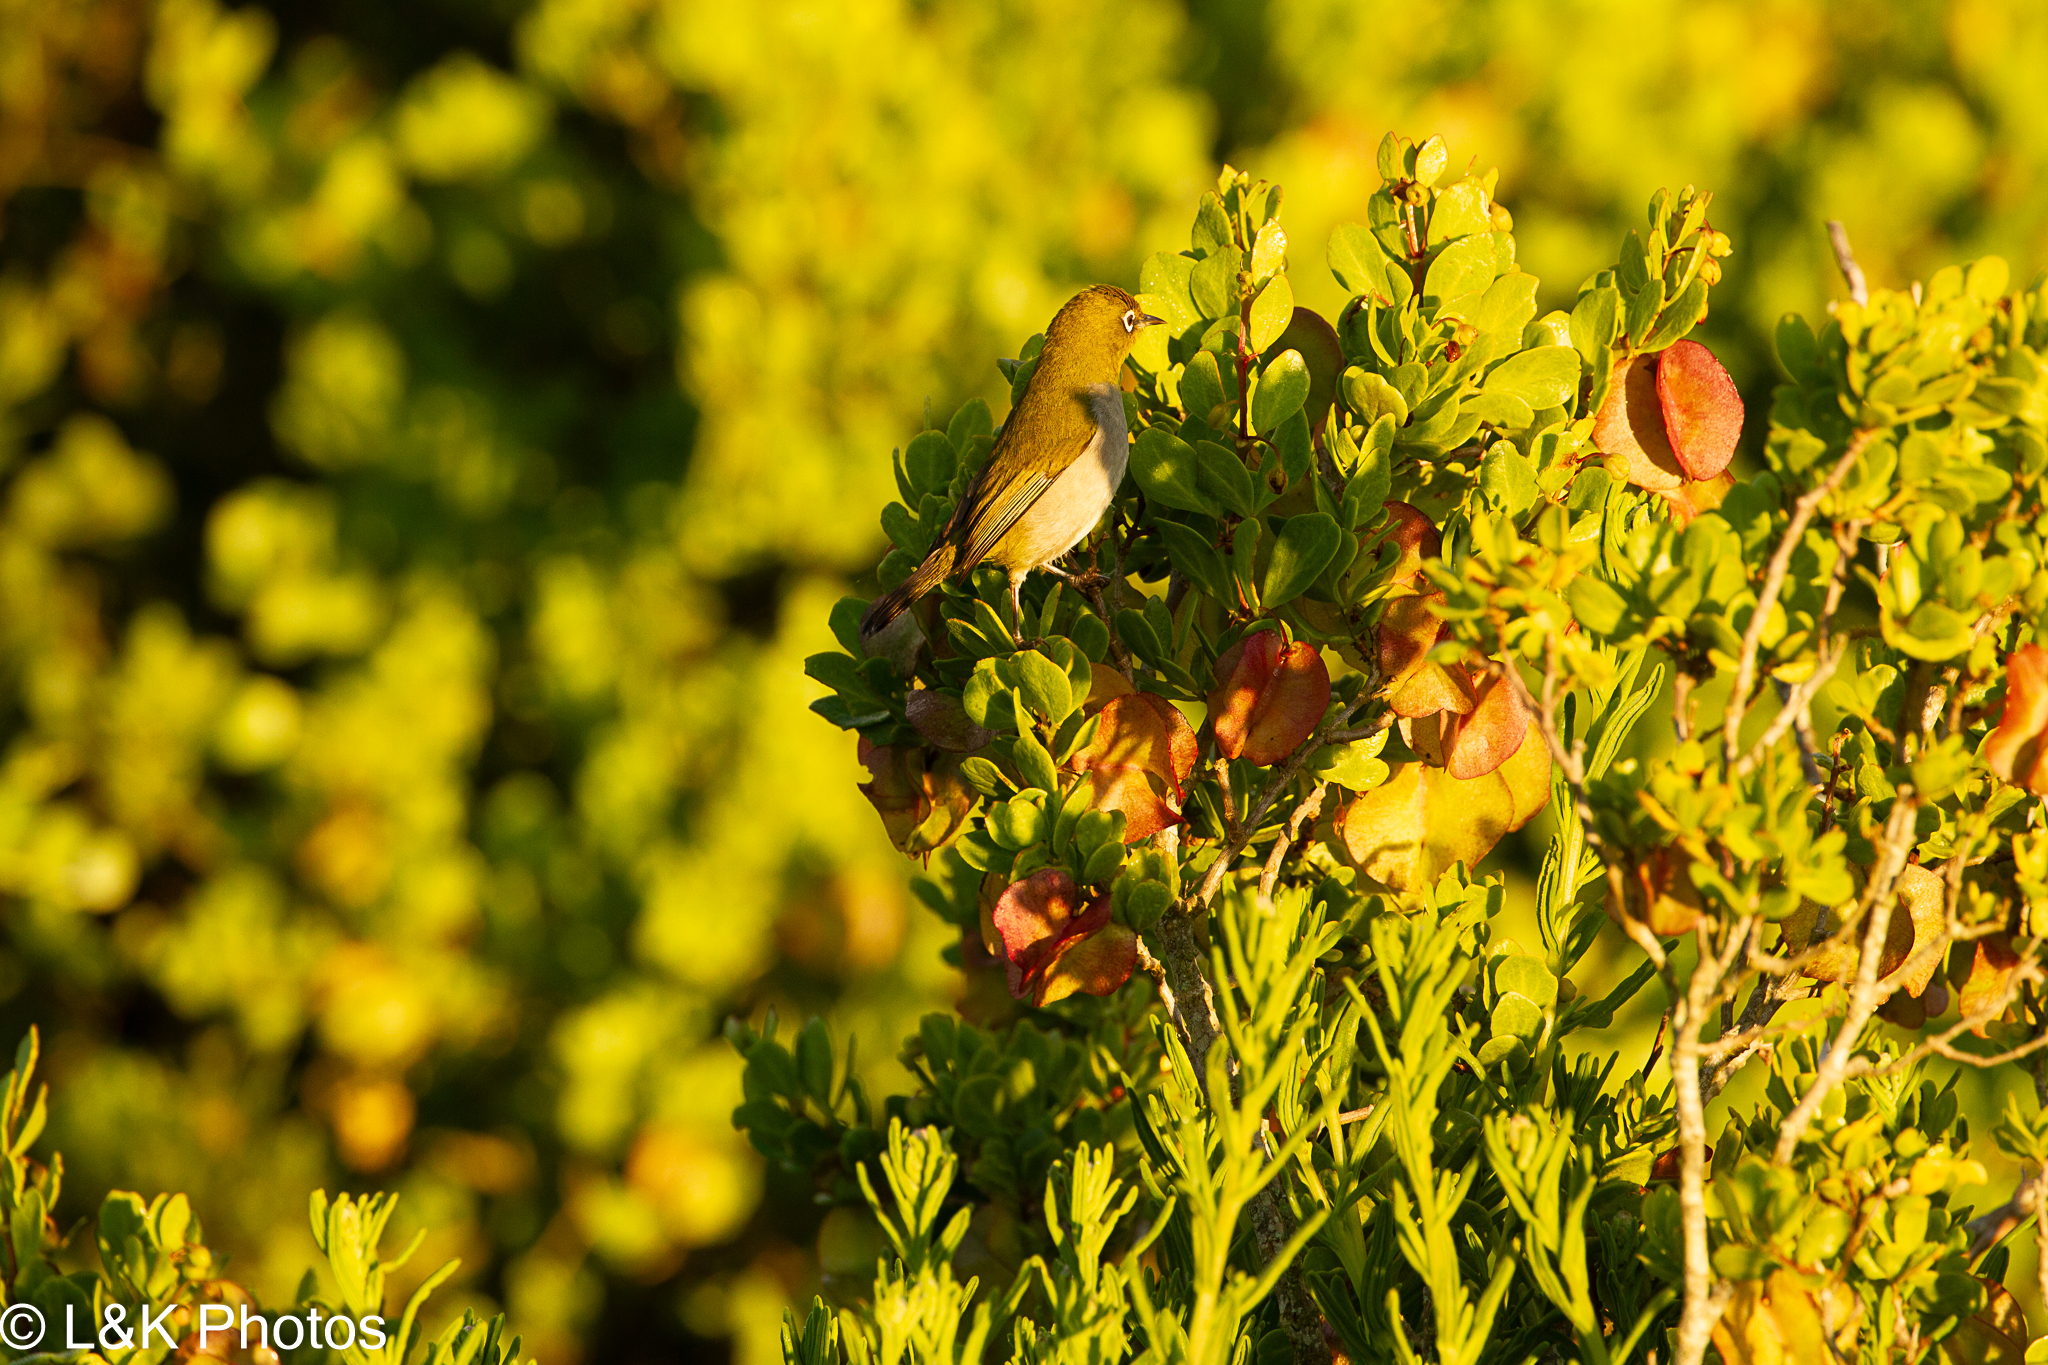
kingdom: Animalia
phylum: Chordata
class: Aves
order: Passeriformes
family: Zosteropidae
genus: Zosterops
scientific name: Zosterops virens
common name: Cape white-eye
